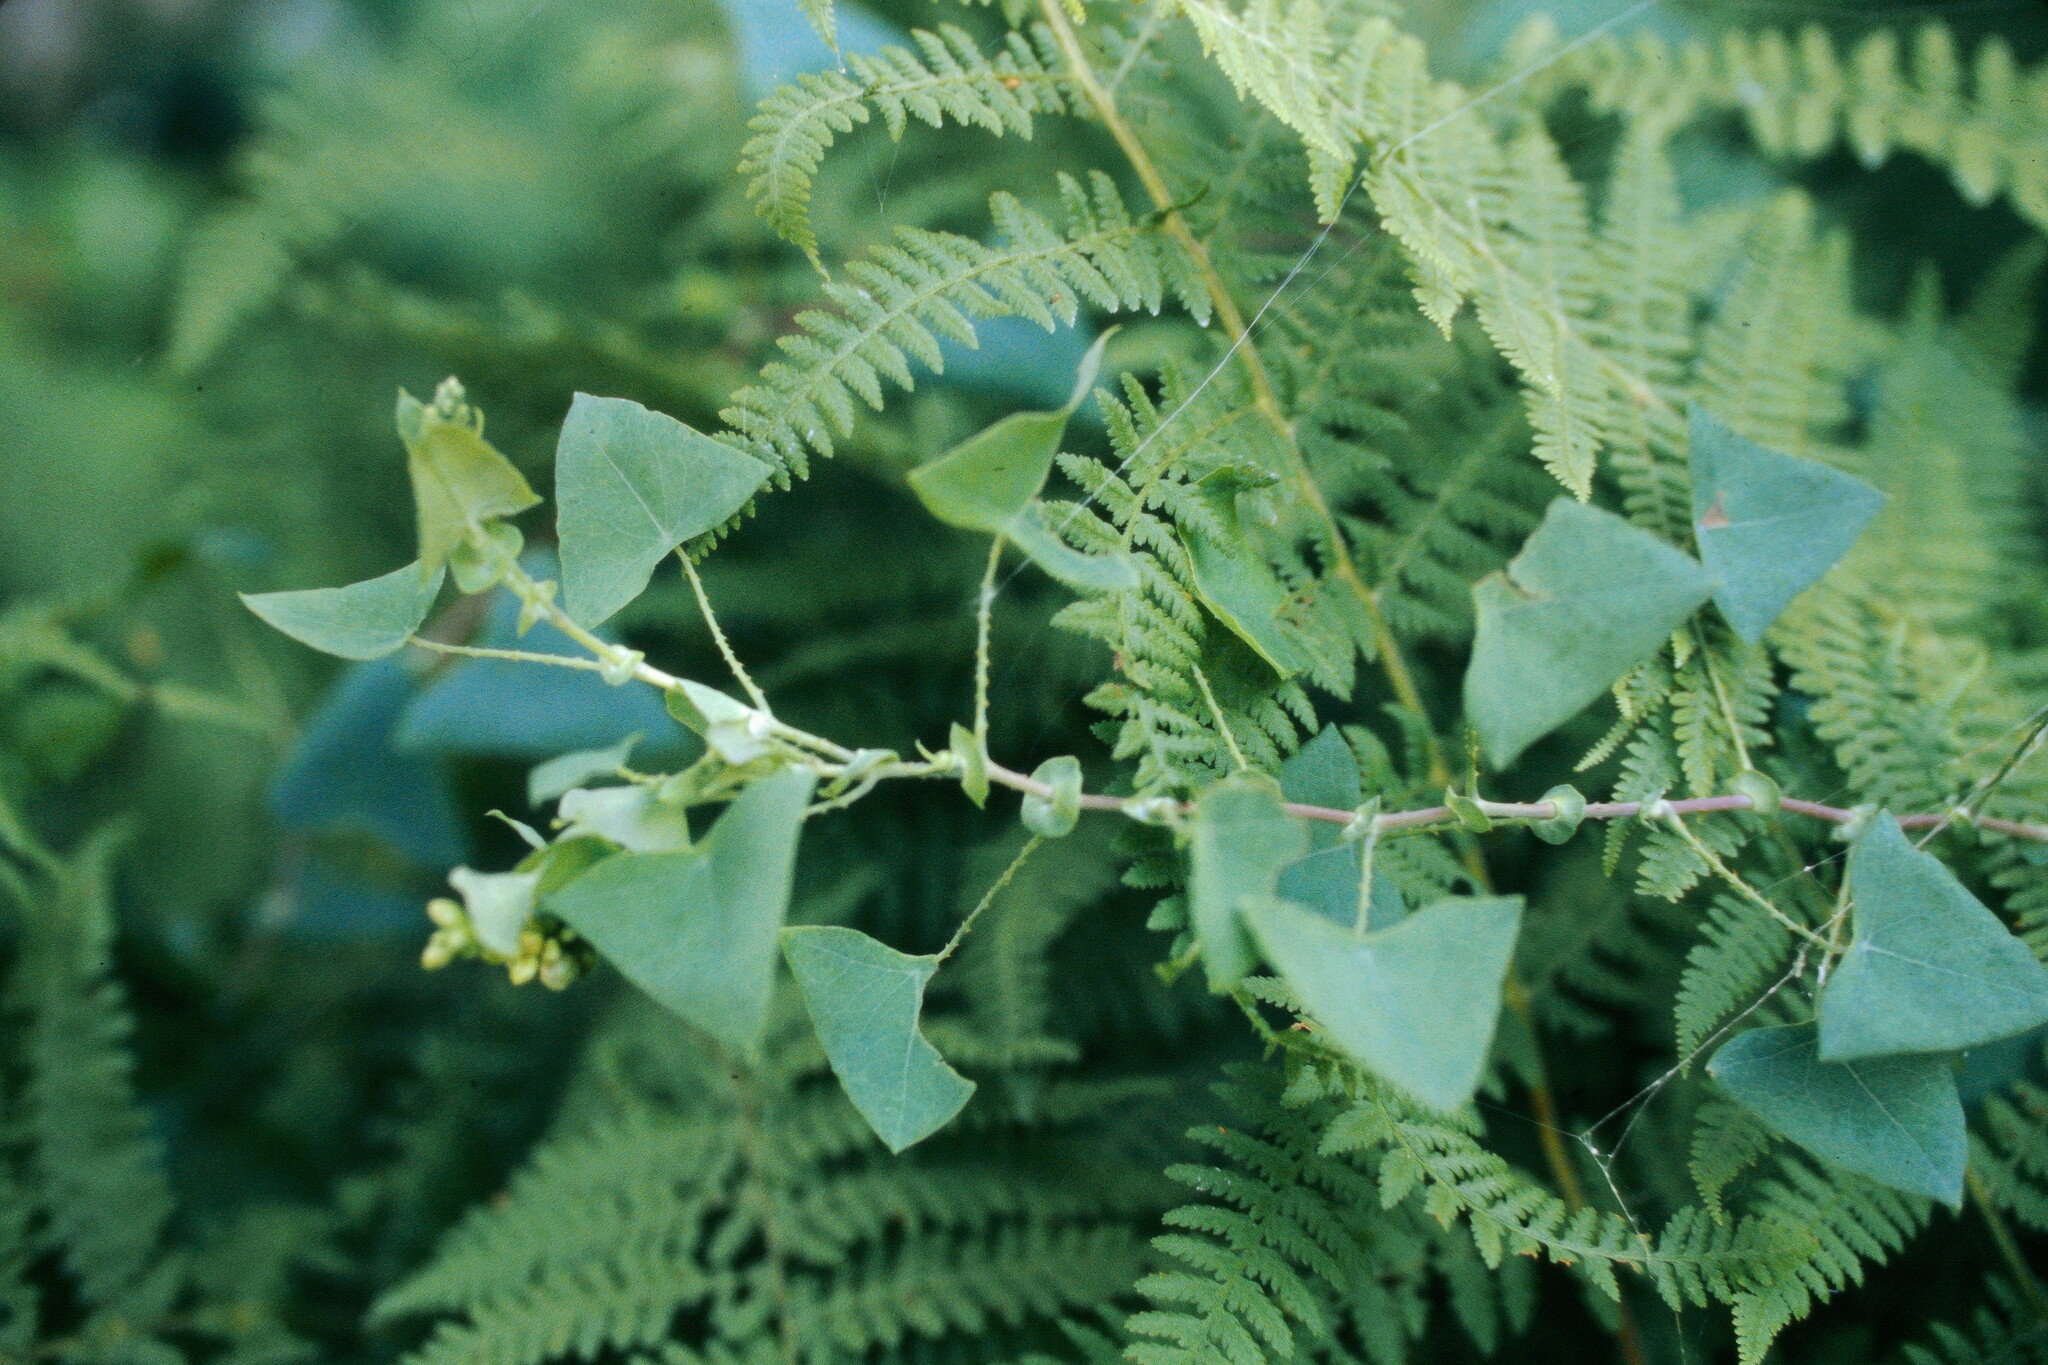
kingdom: Plantae
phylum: Tracheophyta
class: Magnoliopsida
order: Caryophyllales
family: Polygonaceae
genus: Persicaria
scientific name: Persicaria perfoliata
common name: Asiatic tearthumb
